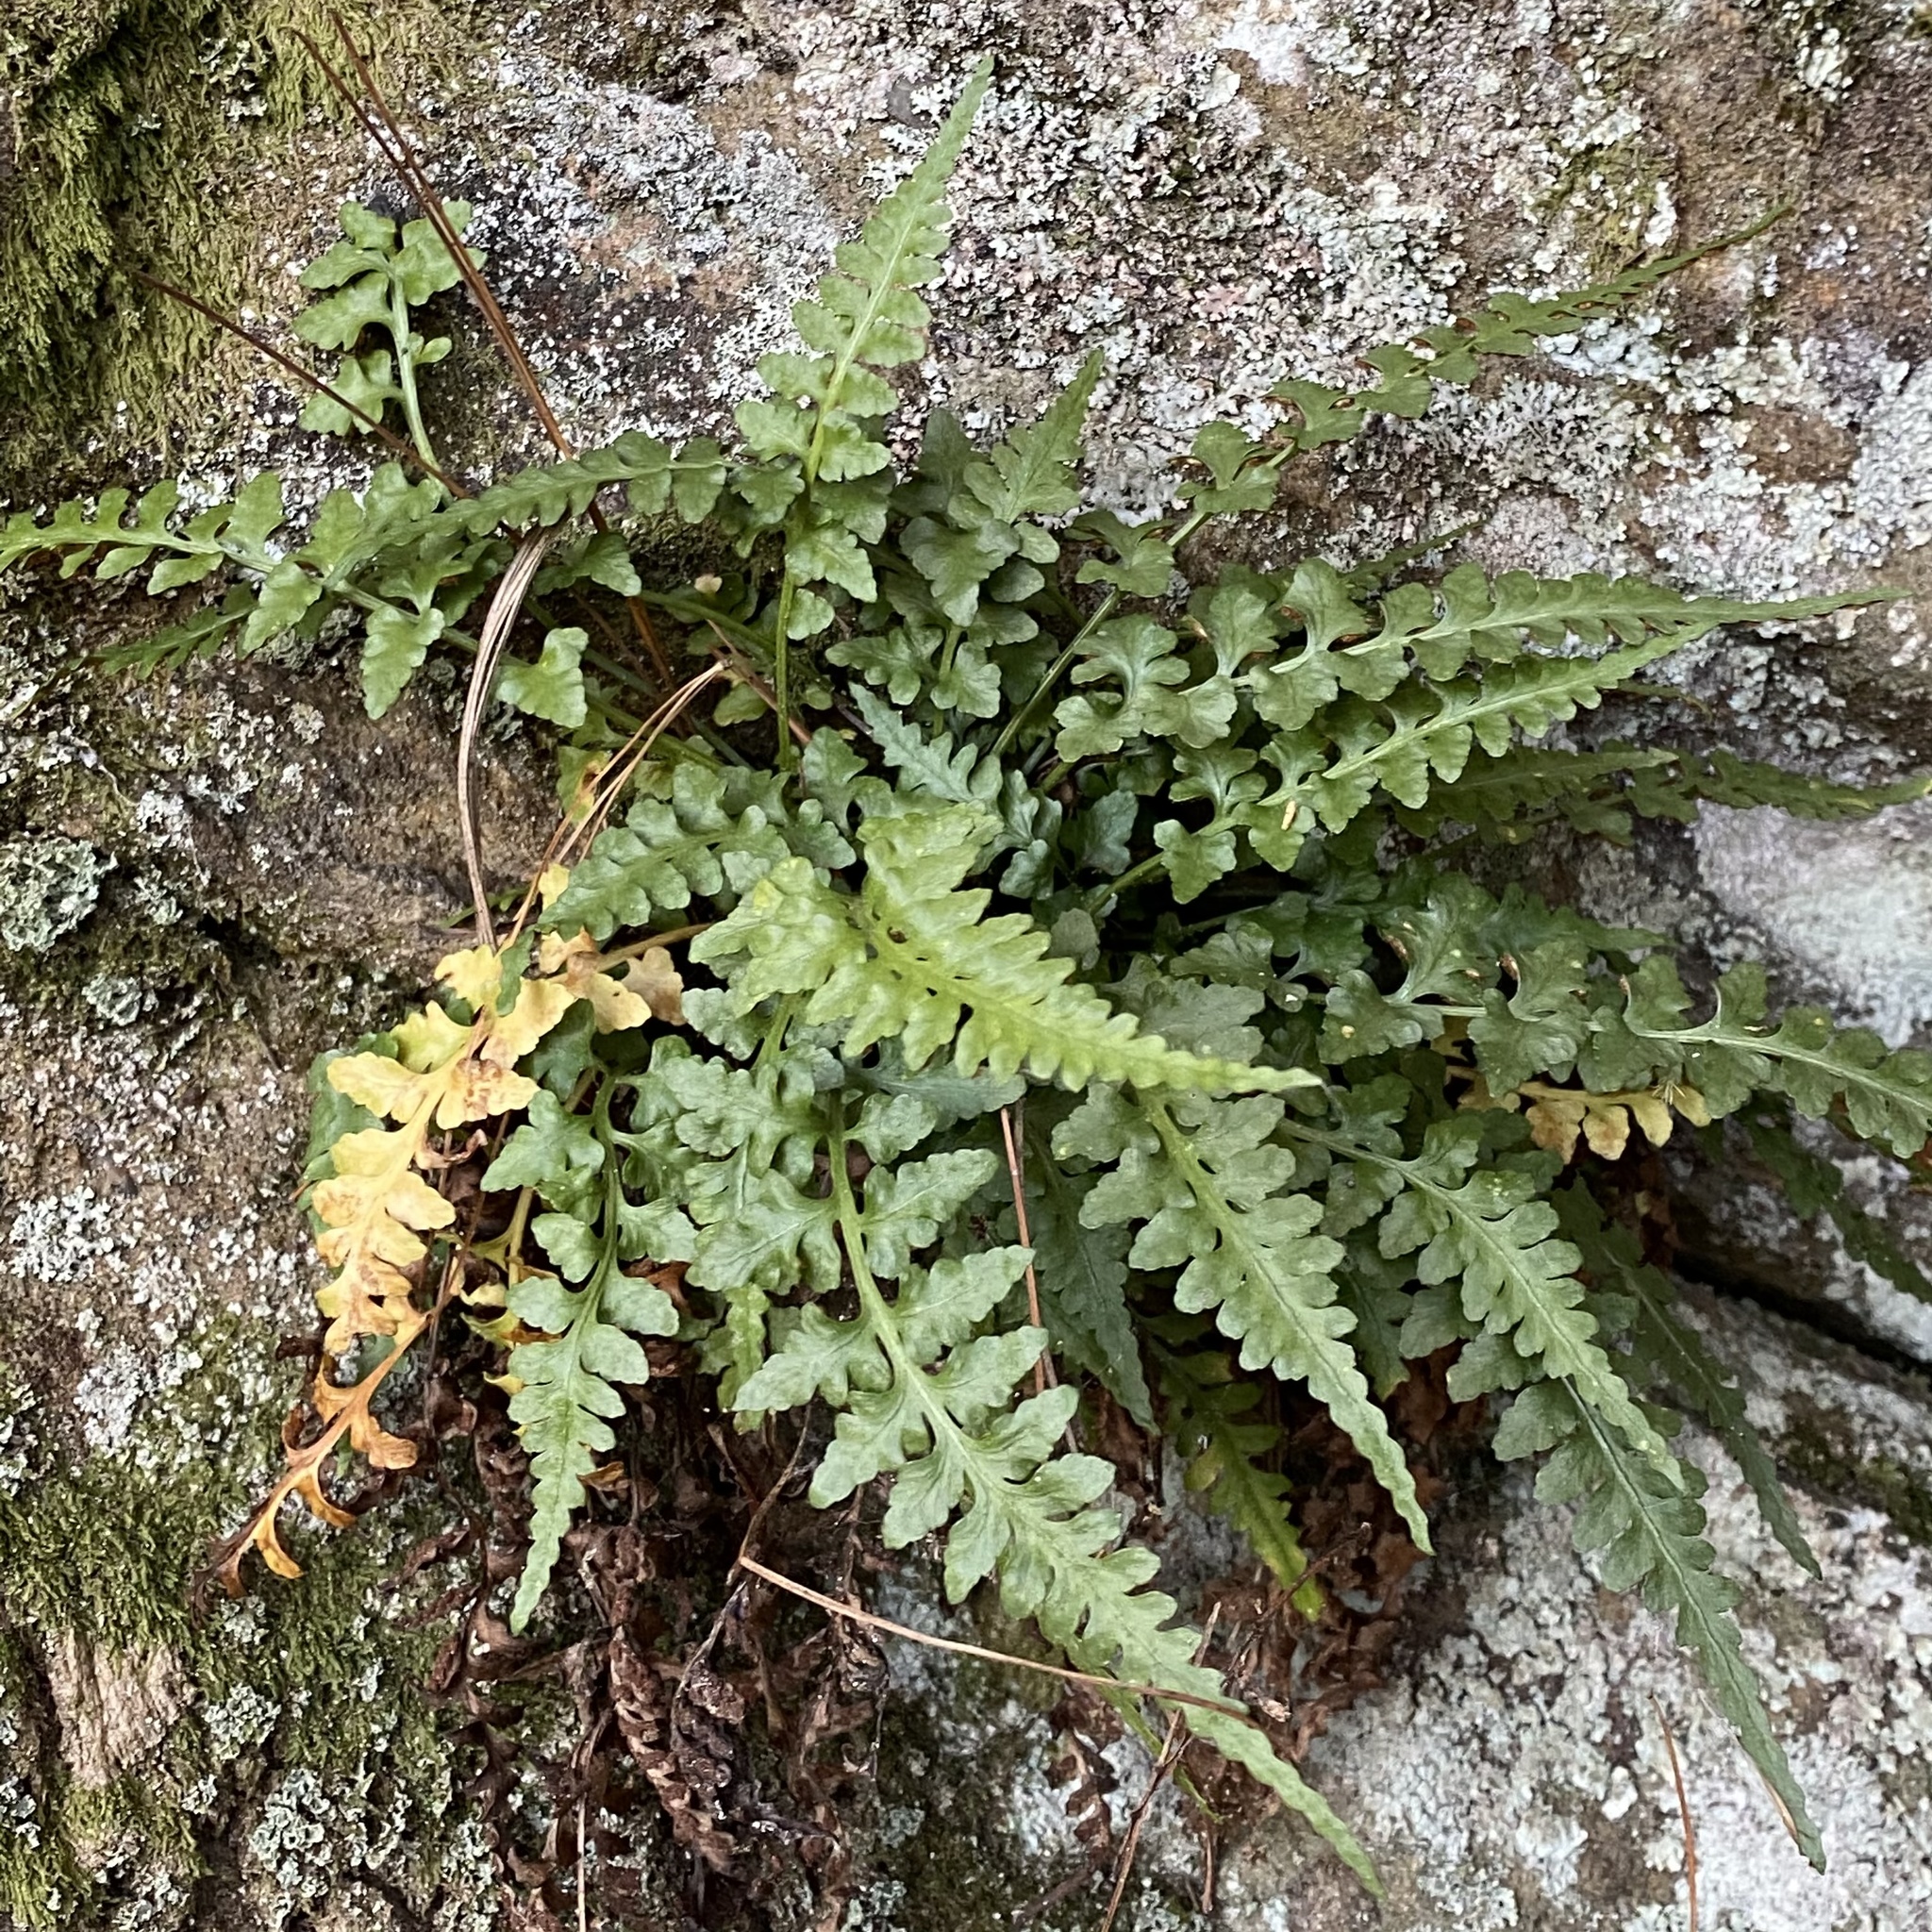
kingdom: Plantae
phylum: Tracheophyta
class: Polypodiopsida
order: Polypodiales
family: Aspleniaceae
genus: Asplenium
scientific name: Asplenium pinnatifidum
